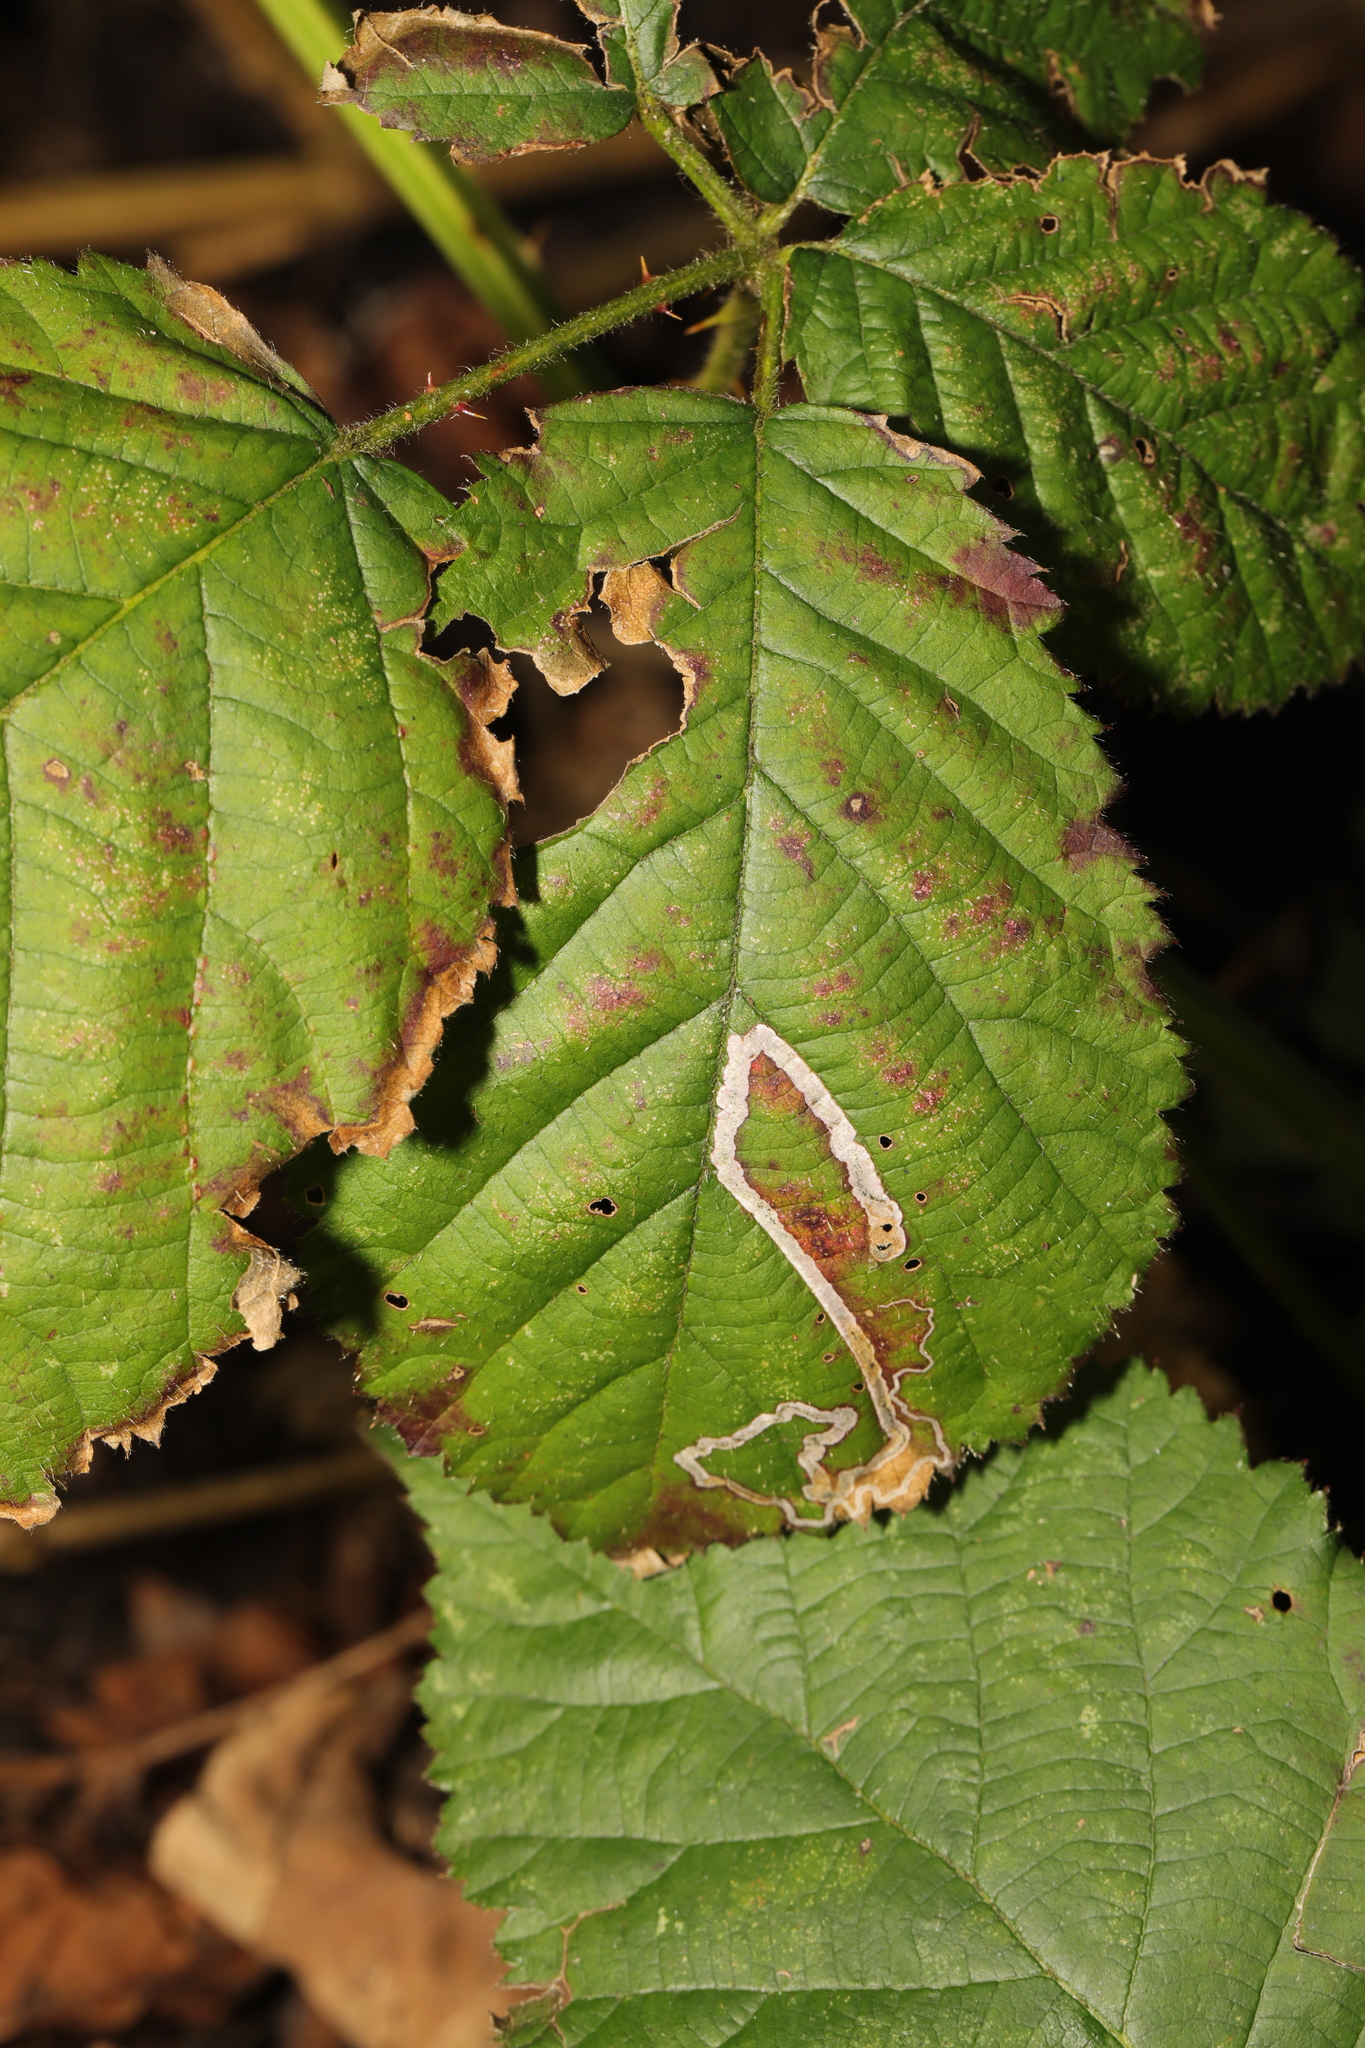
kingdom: Animalia
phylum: Arthropoda
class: Insecta
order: Lepidoptera
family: Nepticulidae
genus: Stigmella
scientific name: Stigmella aurella
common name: Golden pigmy
